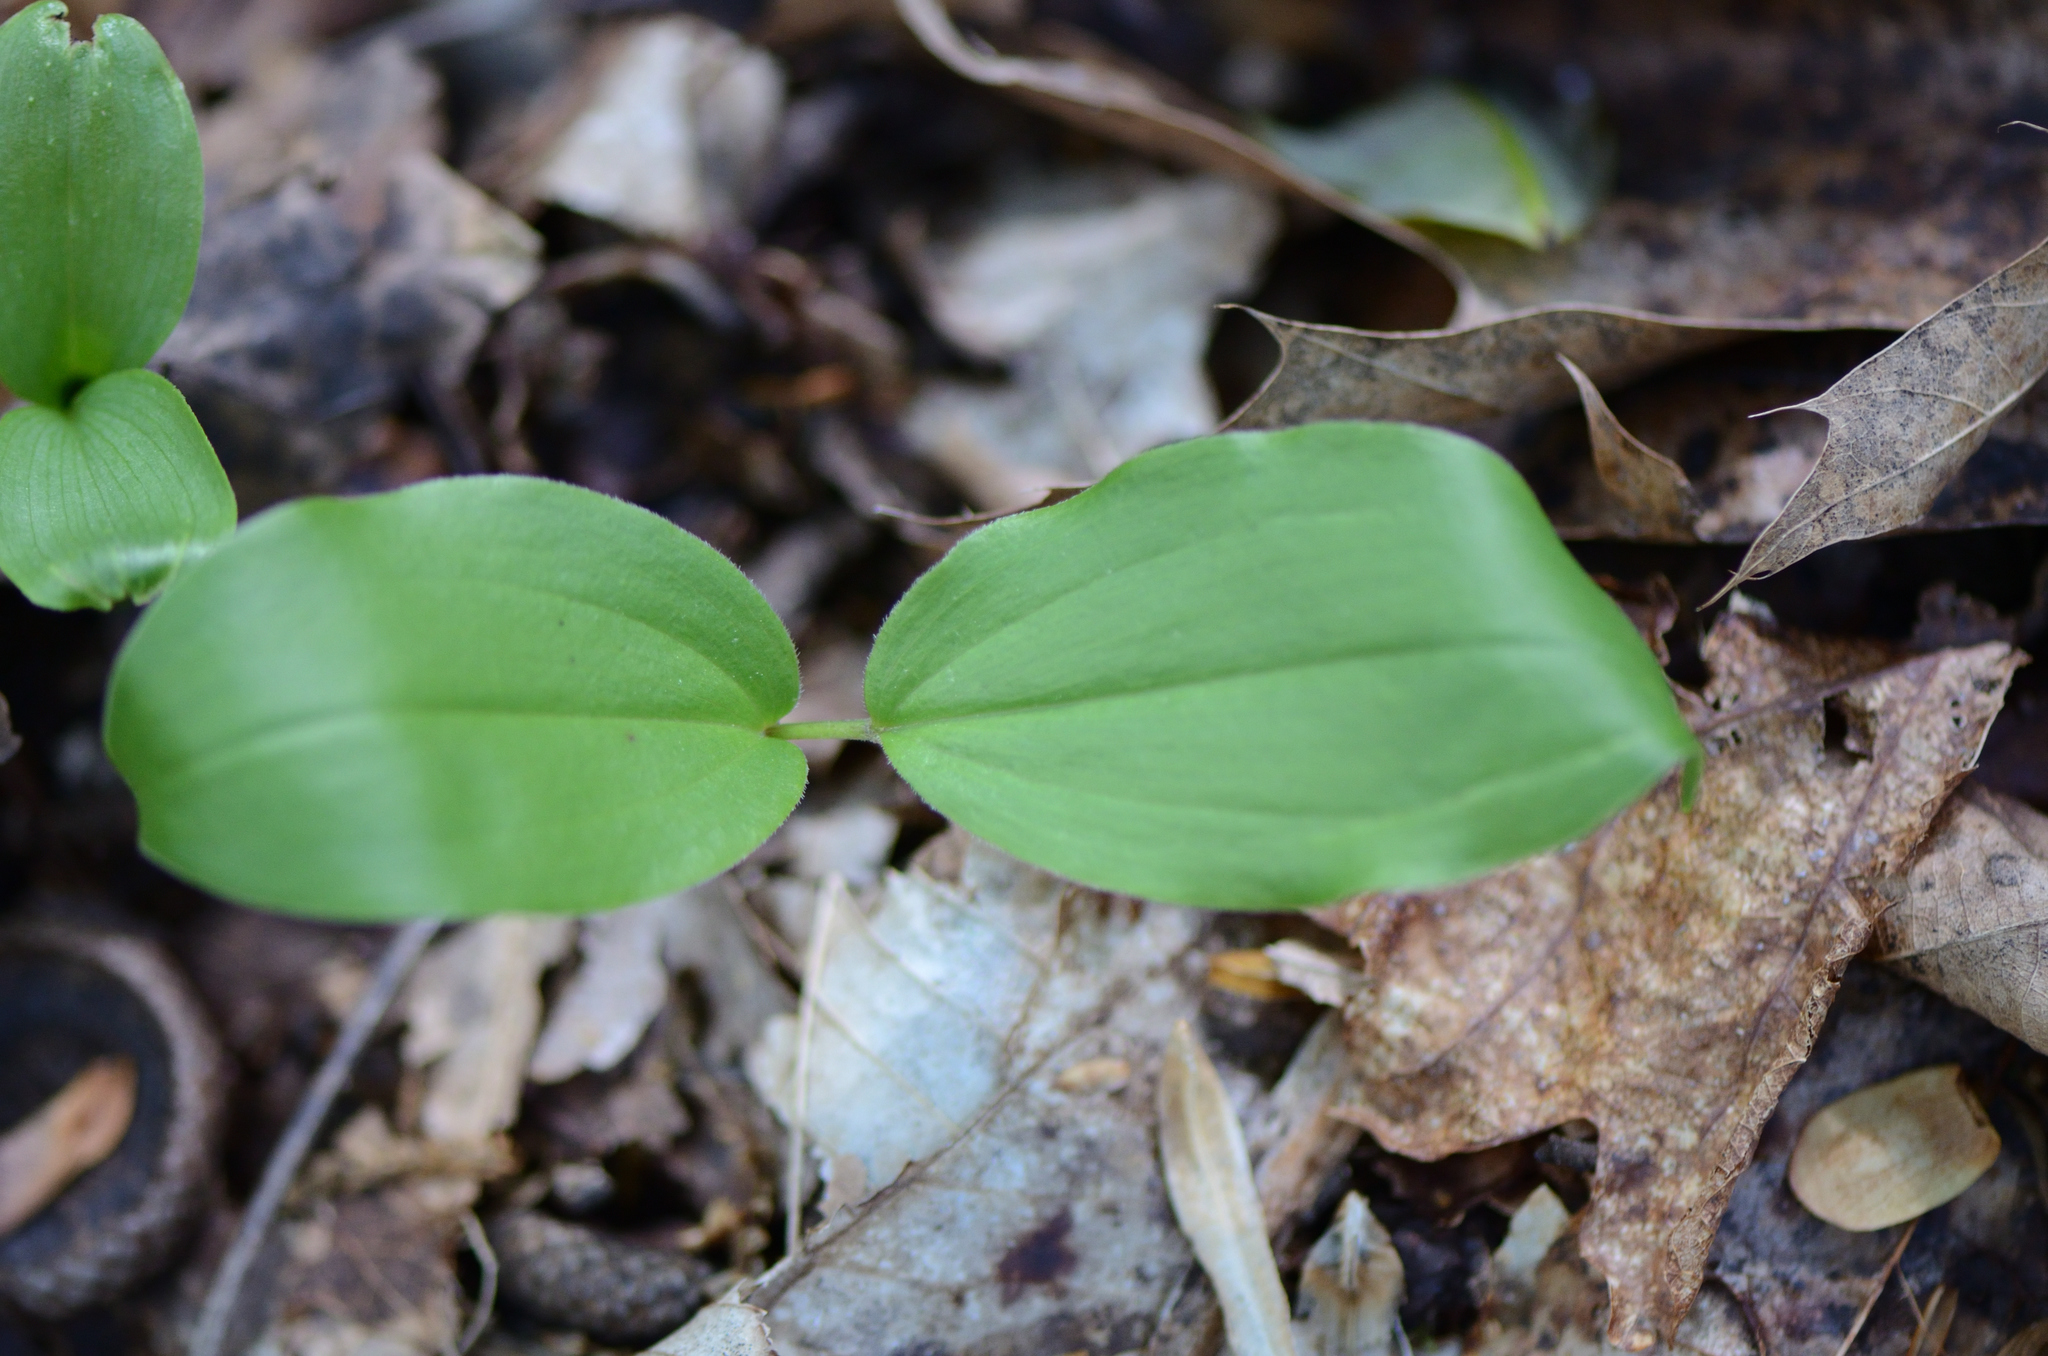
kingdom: Plantae
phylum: Tracheophyta
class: Liliopsida
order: Asparagales
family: Asparagaceae
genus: Maianthemum
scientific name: Maianthemum racemosum
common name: False spikenard
